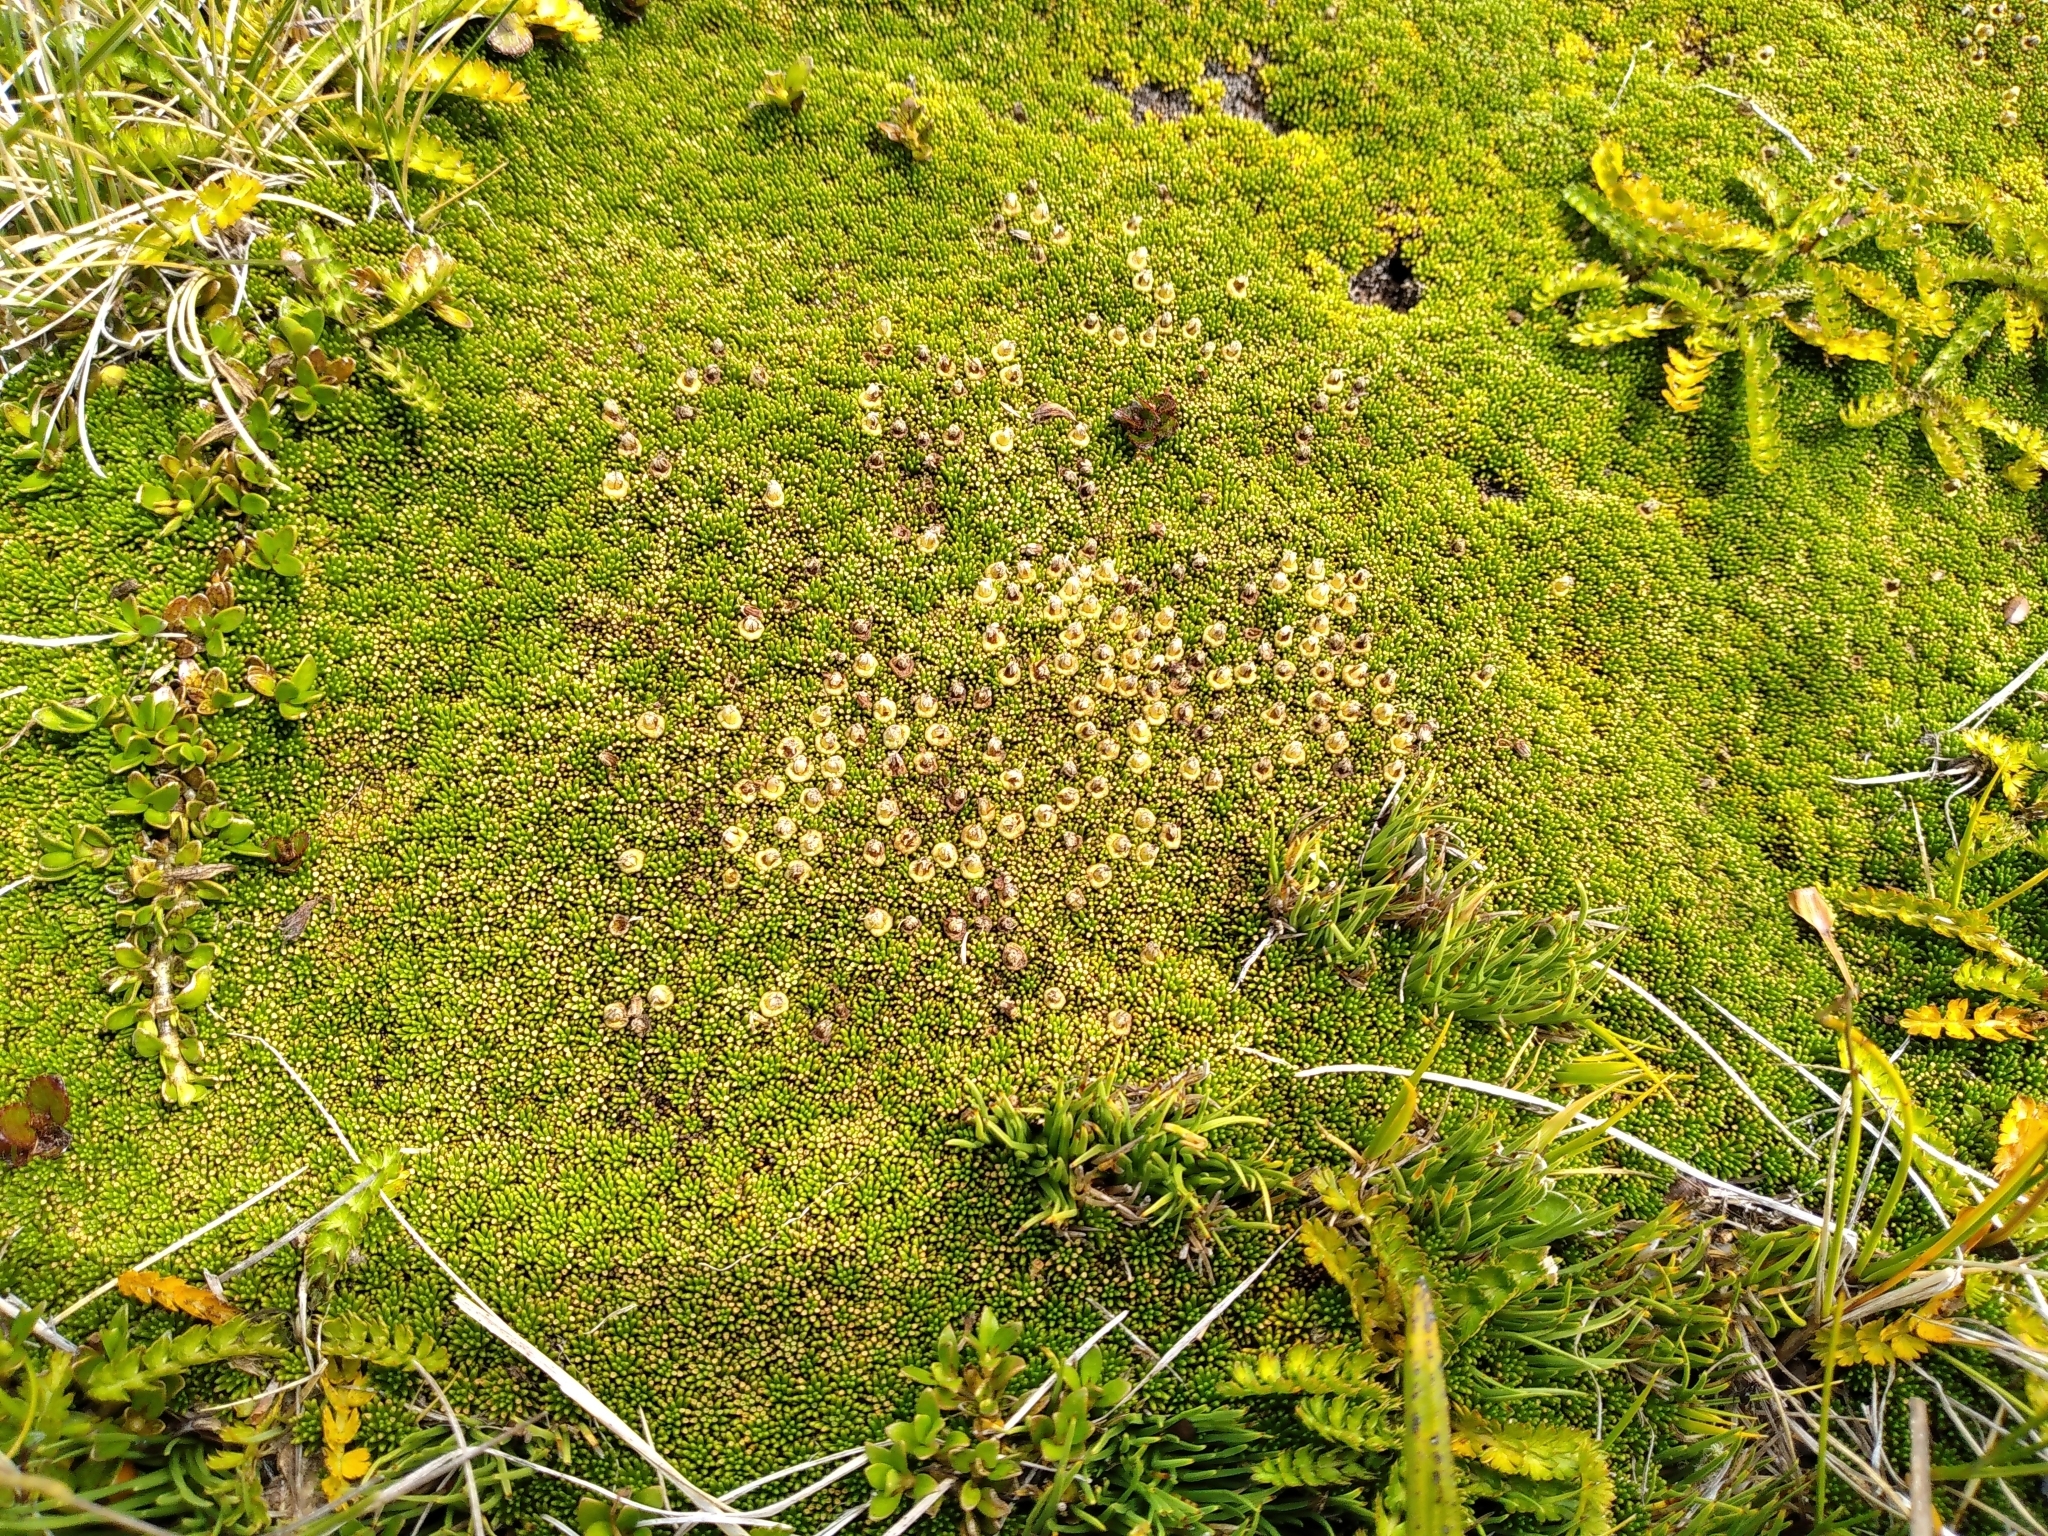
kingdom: Plantae
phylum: Tracheophyta
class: Magnoliopsida
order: Asterales
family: Stylidiaceae
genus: Phyllachne
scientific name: Phyllachne colensoi
